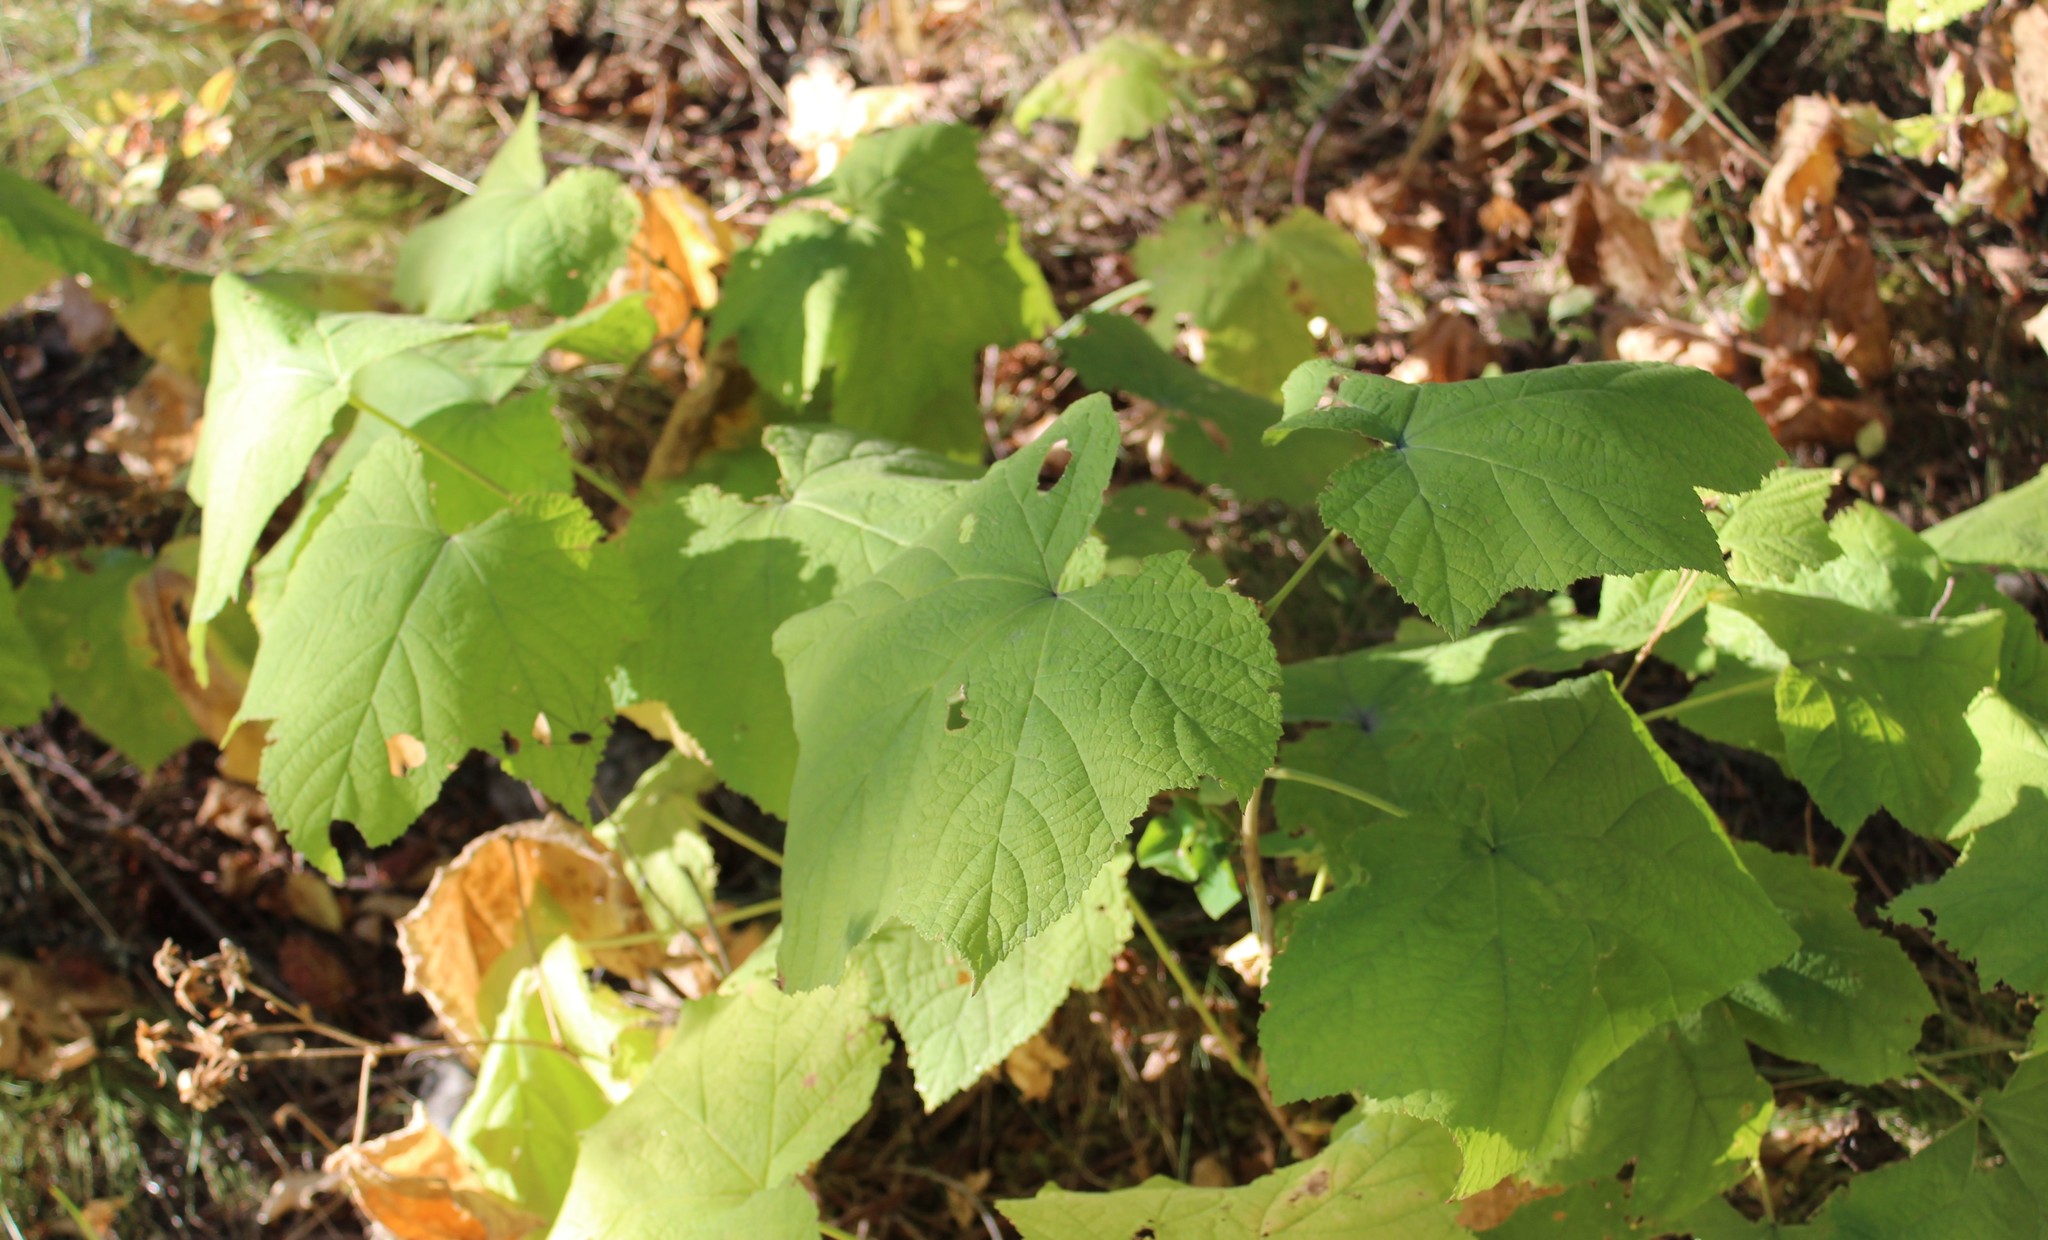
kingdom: Plantae
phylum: Tracheophyta
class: Magnoliopsida
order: Rosales
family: Rosaceae
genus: Rubus
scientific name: Rubus parviflorus
